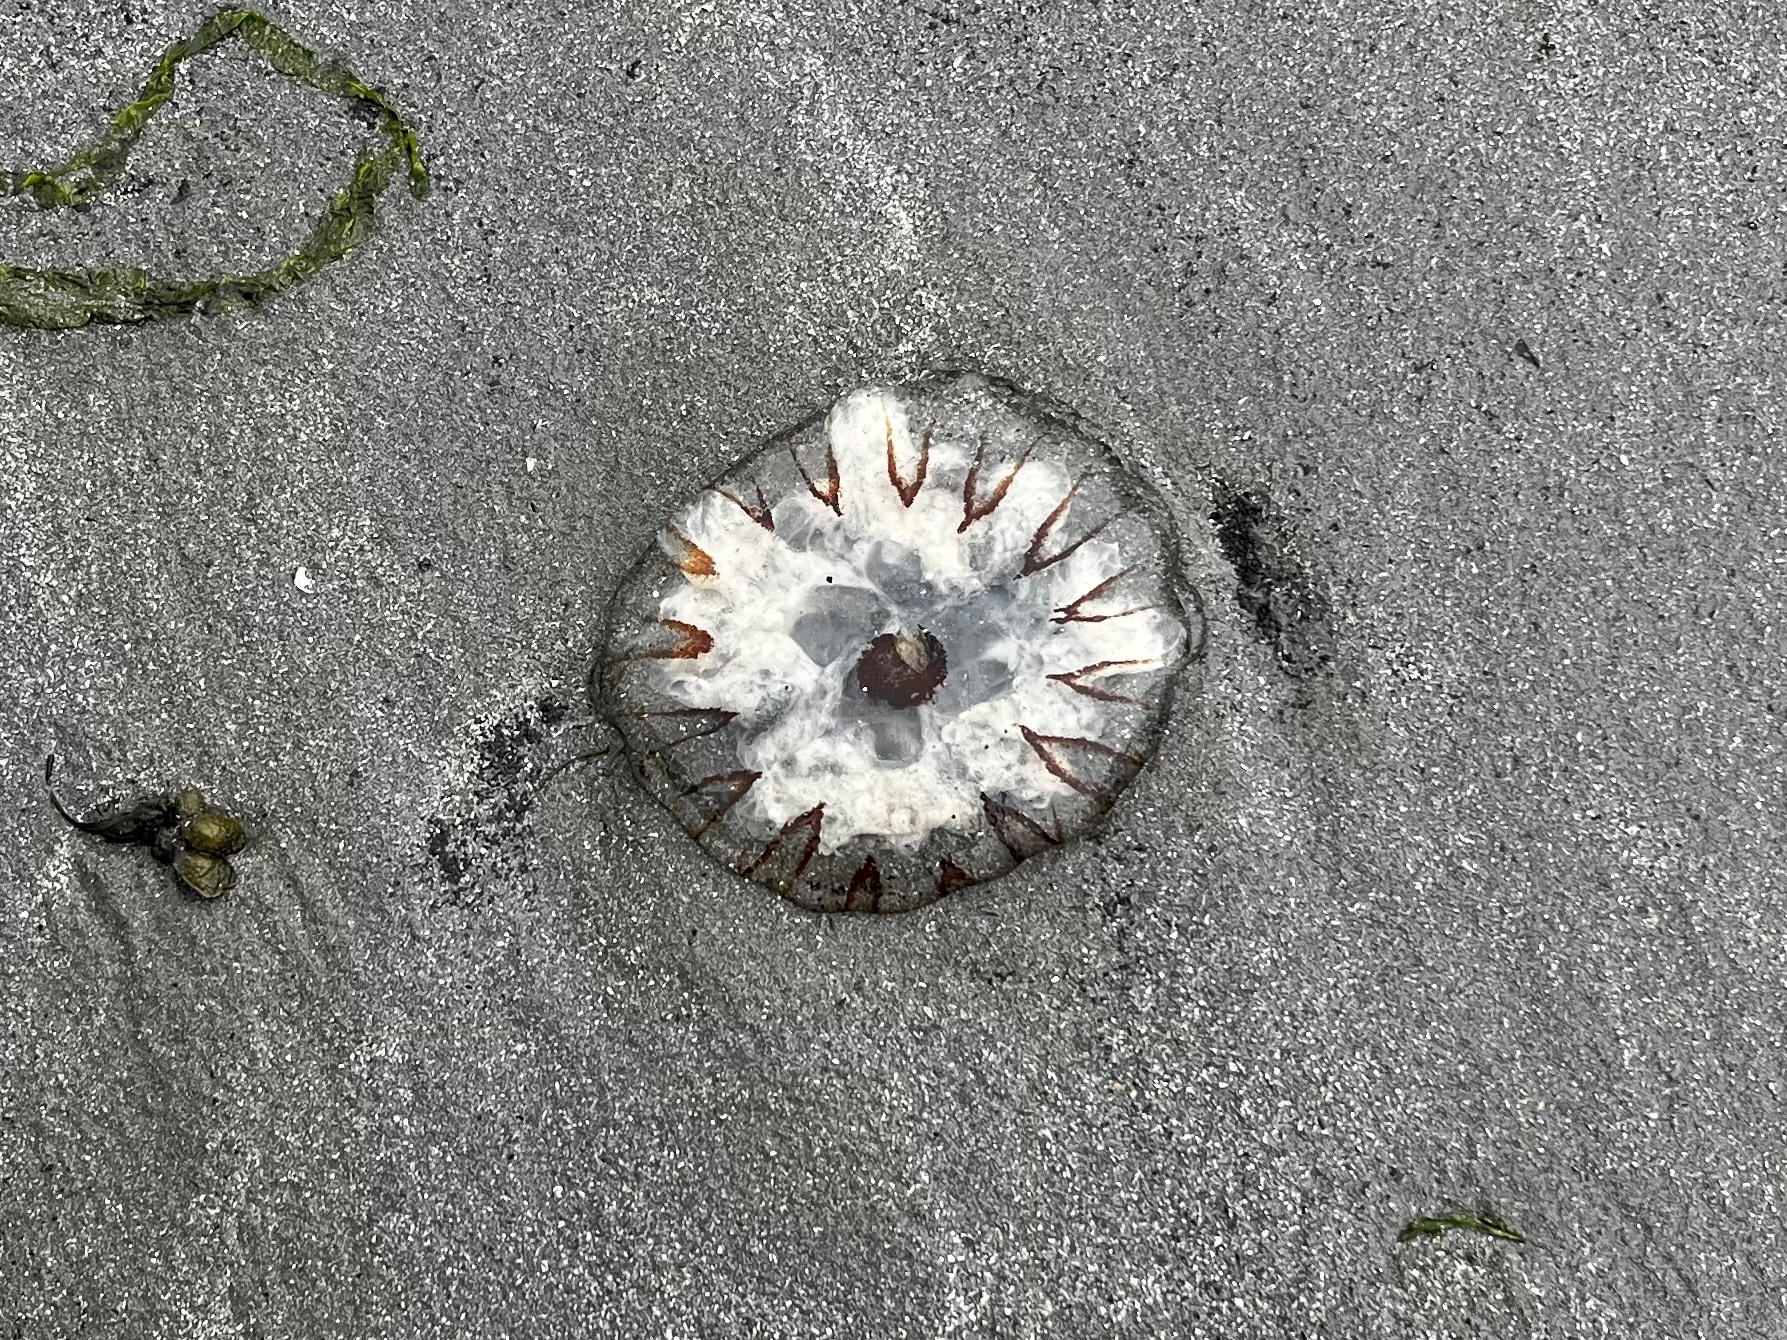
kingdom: Animalia
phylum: Cnidaria
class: Scyphozoa
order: Semaeostomeae
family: Pelagiidae
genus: Chrysaora
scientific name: Chrysaora hysoscella
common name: Compass jellyfish
